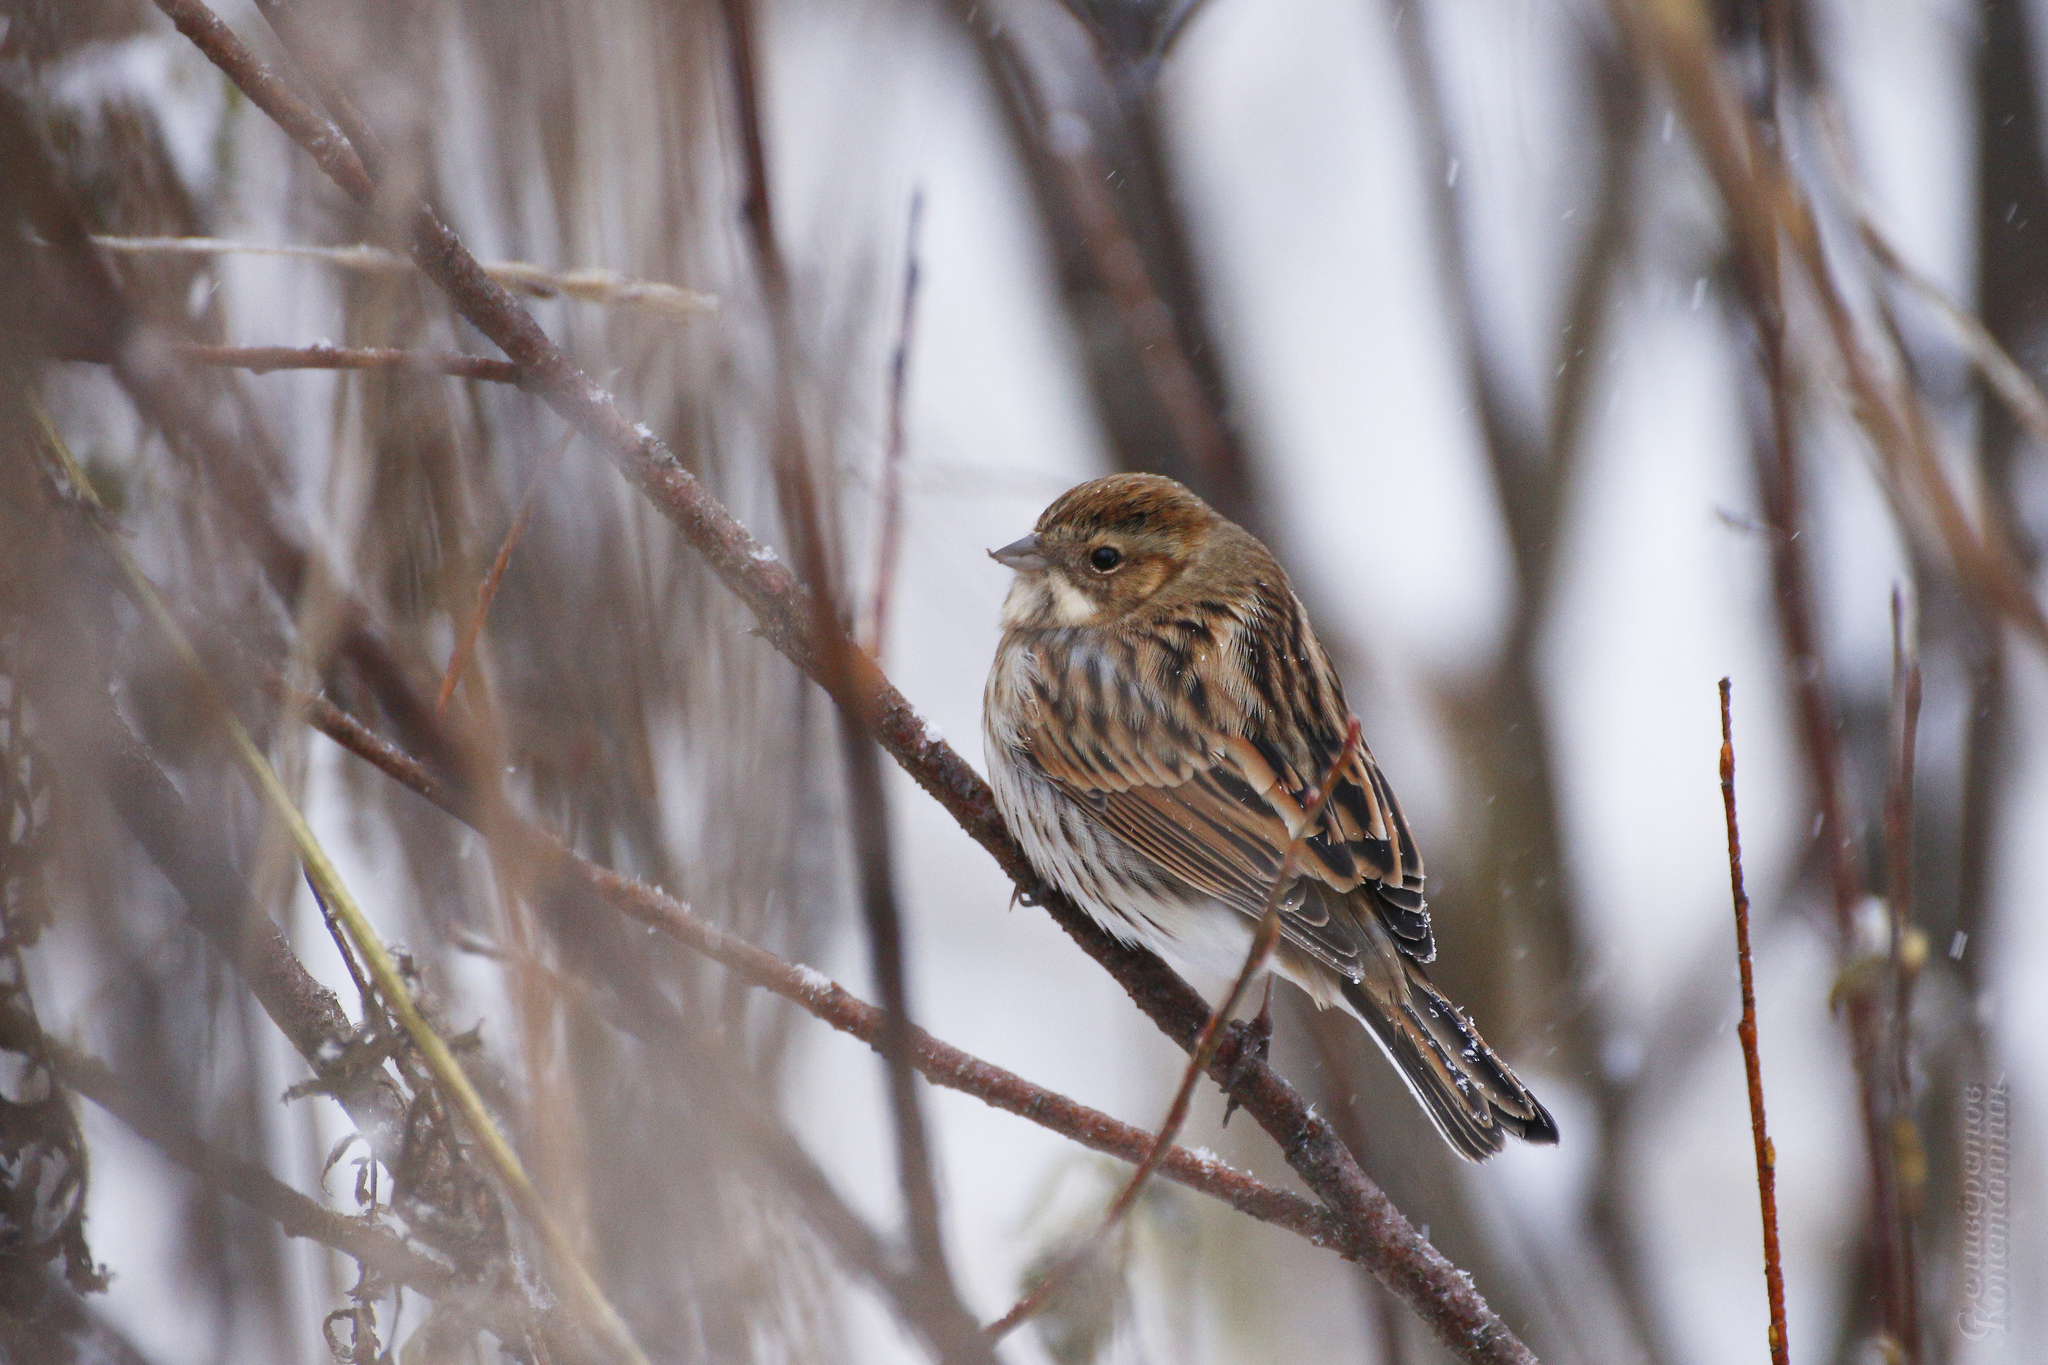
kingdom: Animalia
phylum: Chordata
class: Aves
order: Passeriformes
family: Emberizidae
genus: Emberiza
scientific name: Emberiza schoeniclus
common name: Reed bunting
